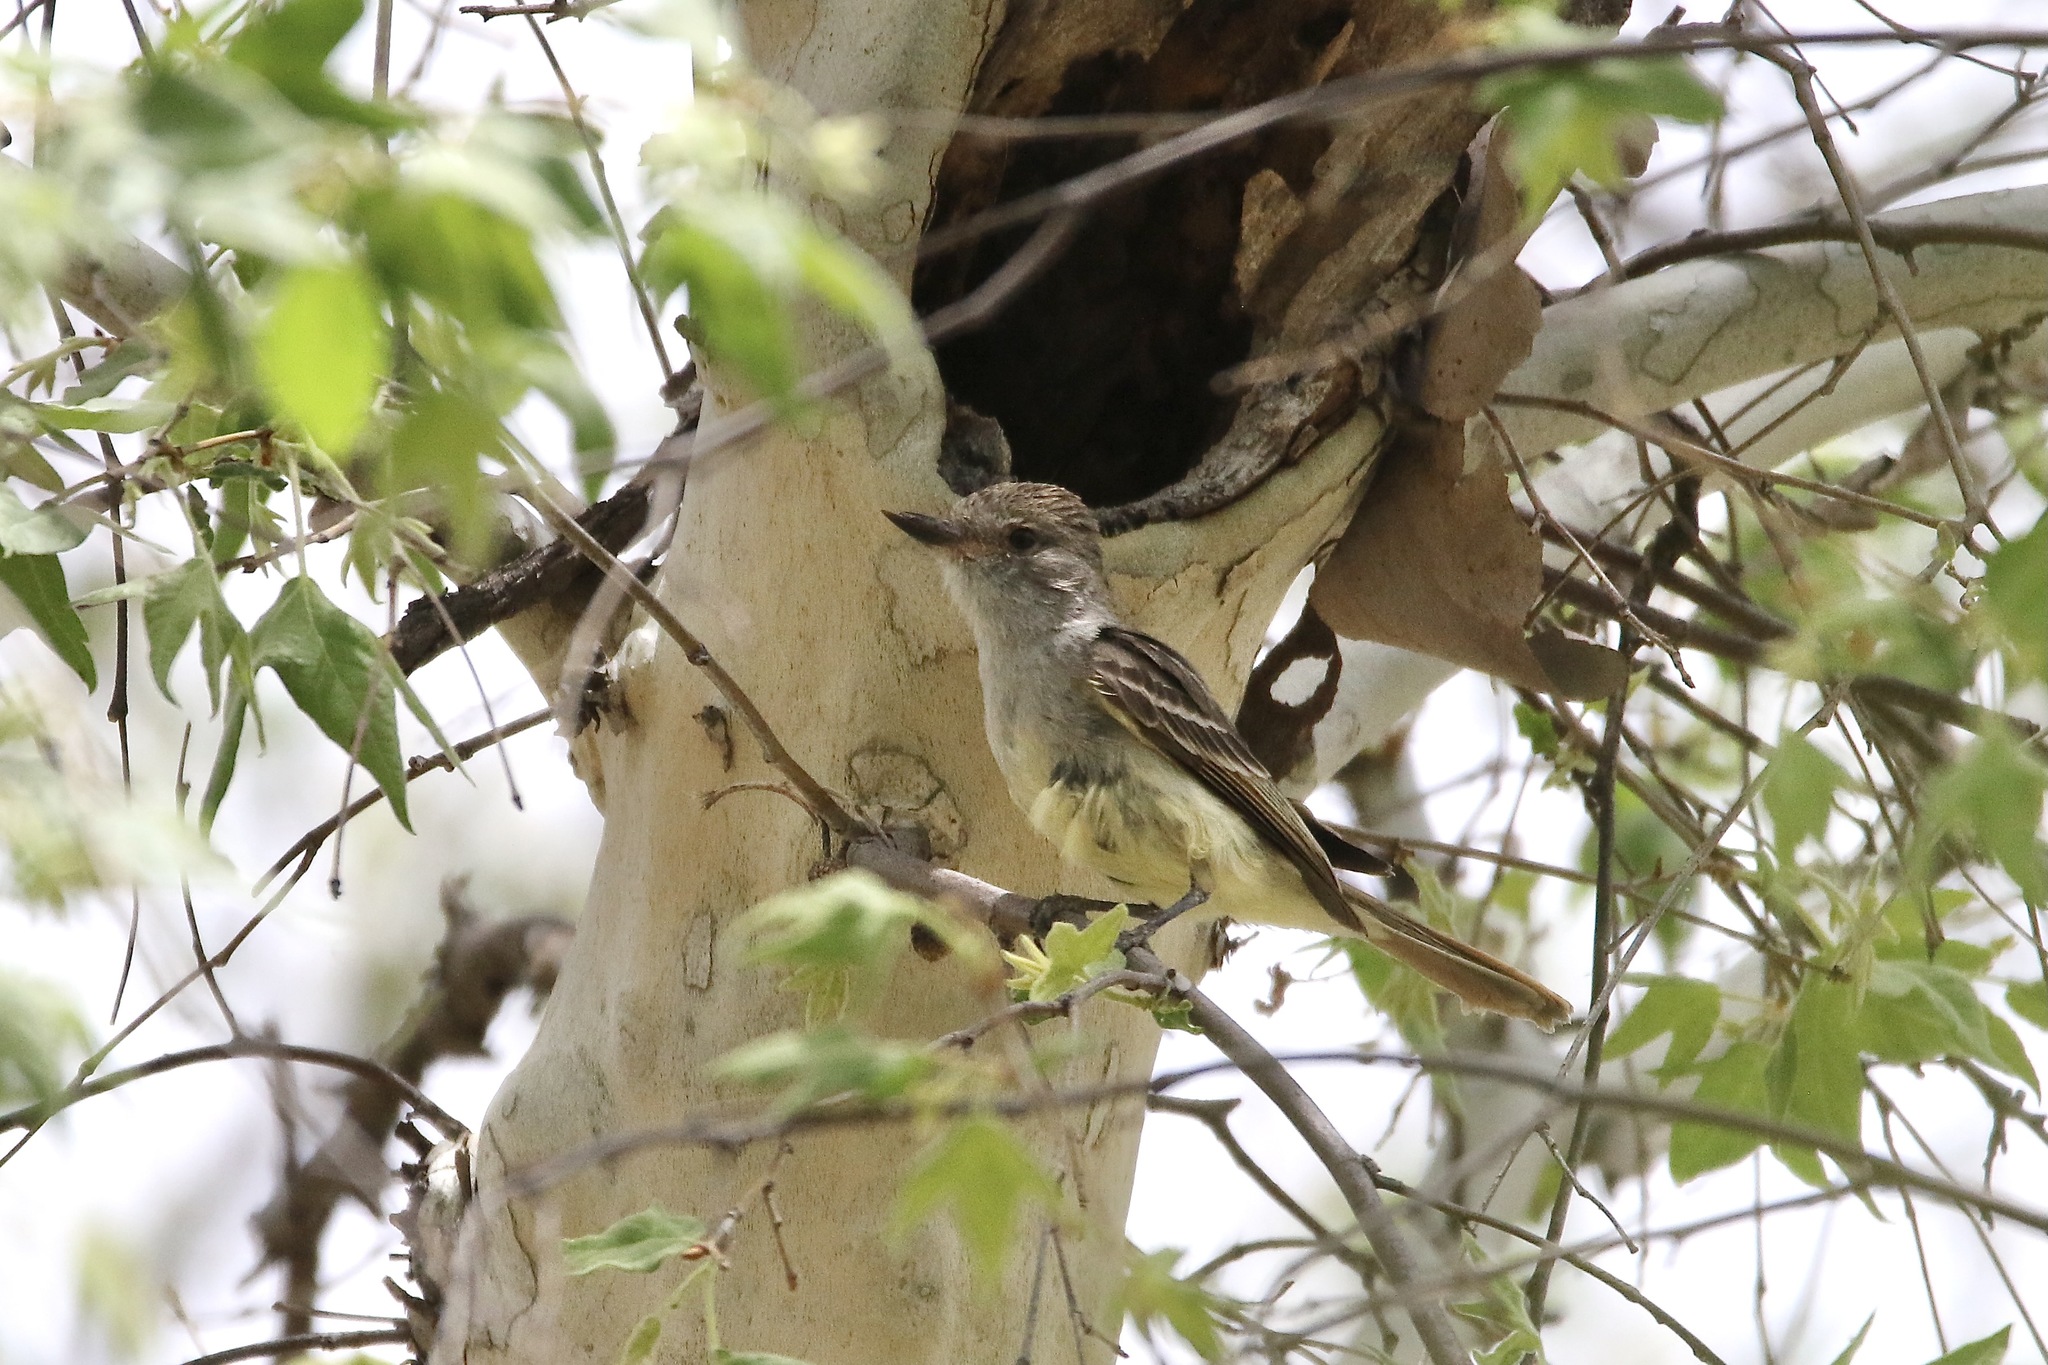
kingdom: Animalia
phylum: Chordata
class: Aves
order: Passeriformes
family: Tyrannidae
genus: Myiarchus
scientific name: Myiarchus nuttingi
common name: Nutting's flycatcher
